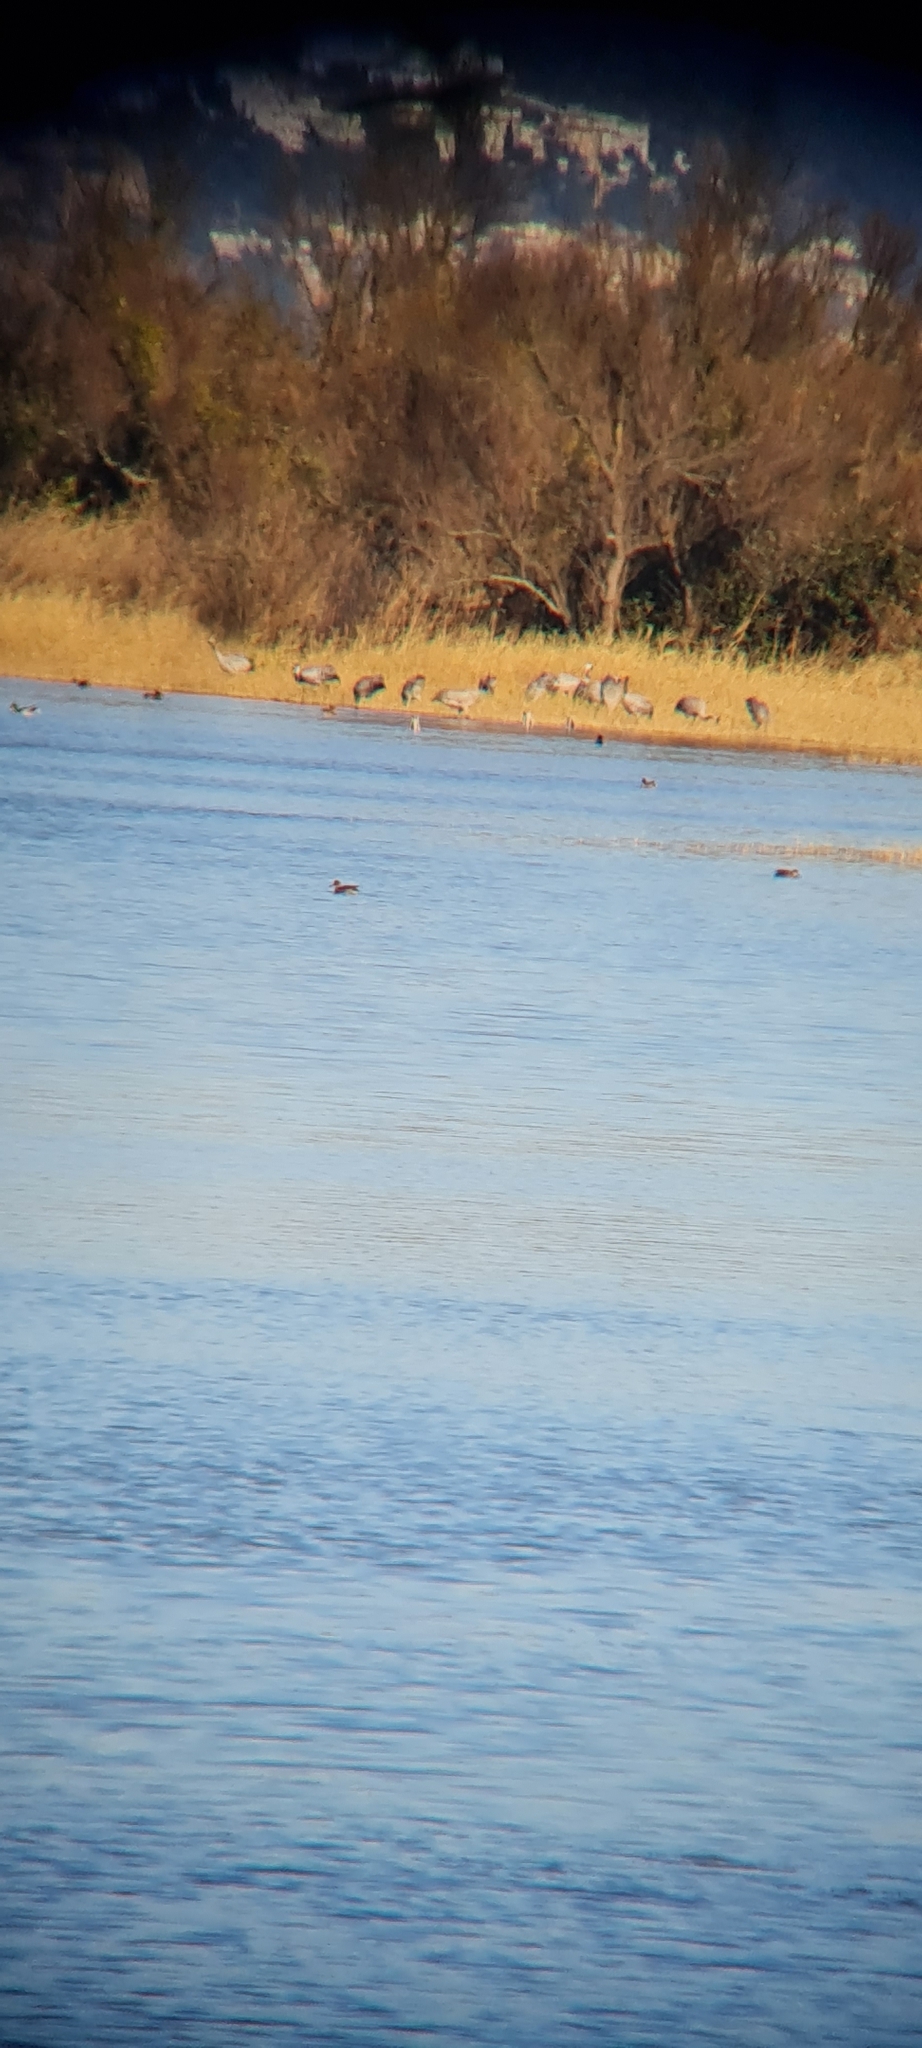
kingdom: Animalia
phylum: Chordata
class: Aves
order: Gruiformes
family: Gruidae
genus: Grus
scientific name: Grus grus
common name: Common crane
